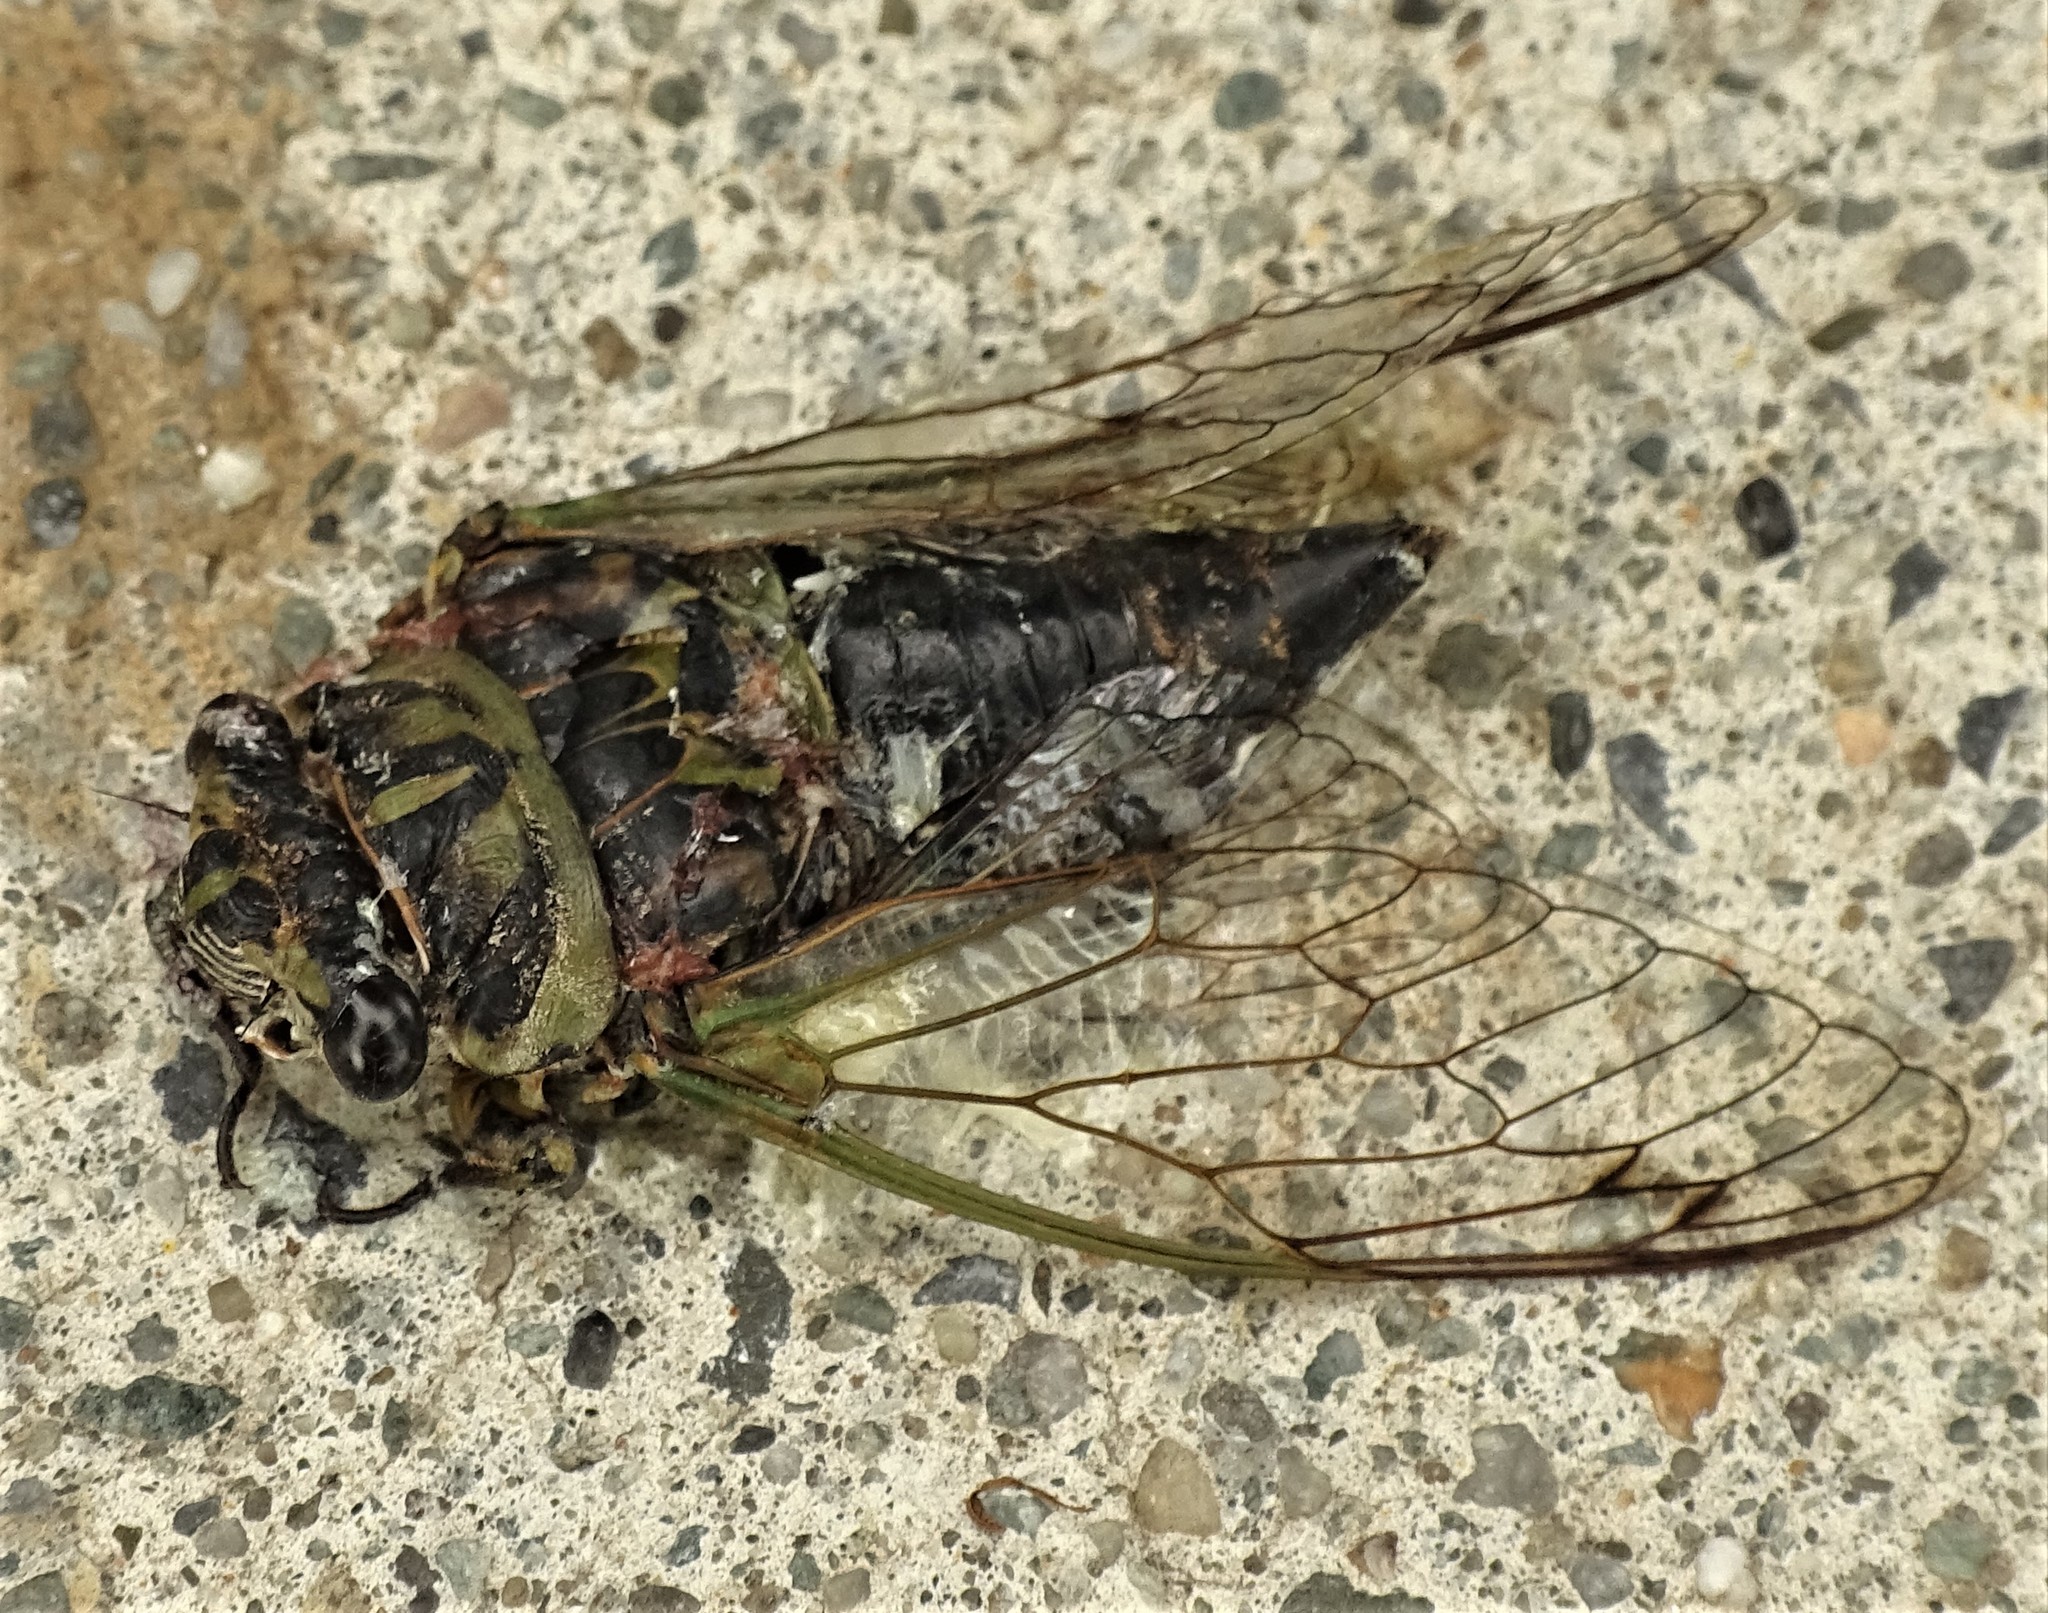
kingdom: Animalia
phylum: Arthropoda
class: Insecta
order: Hemiptera
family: Cicadidae
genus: Neotibicen
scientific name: Neotibicen canicularis
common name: God-day cicada
